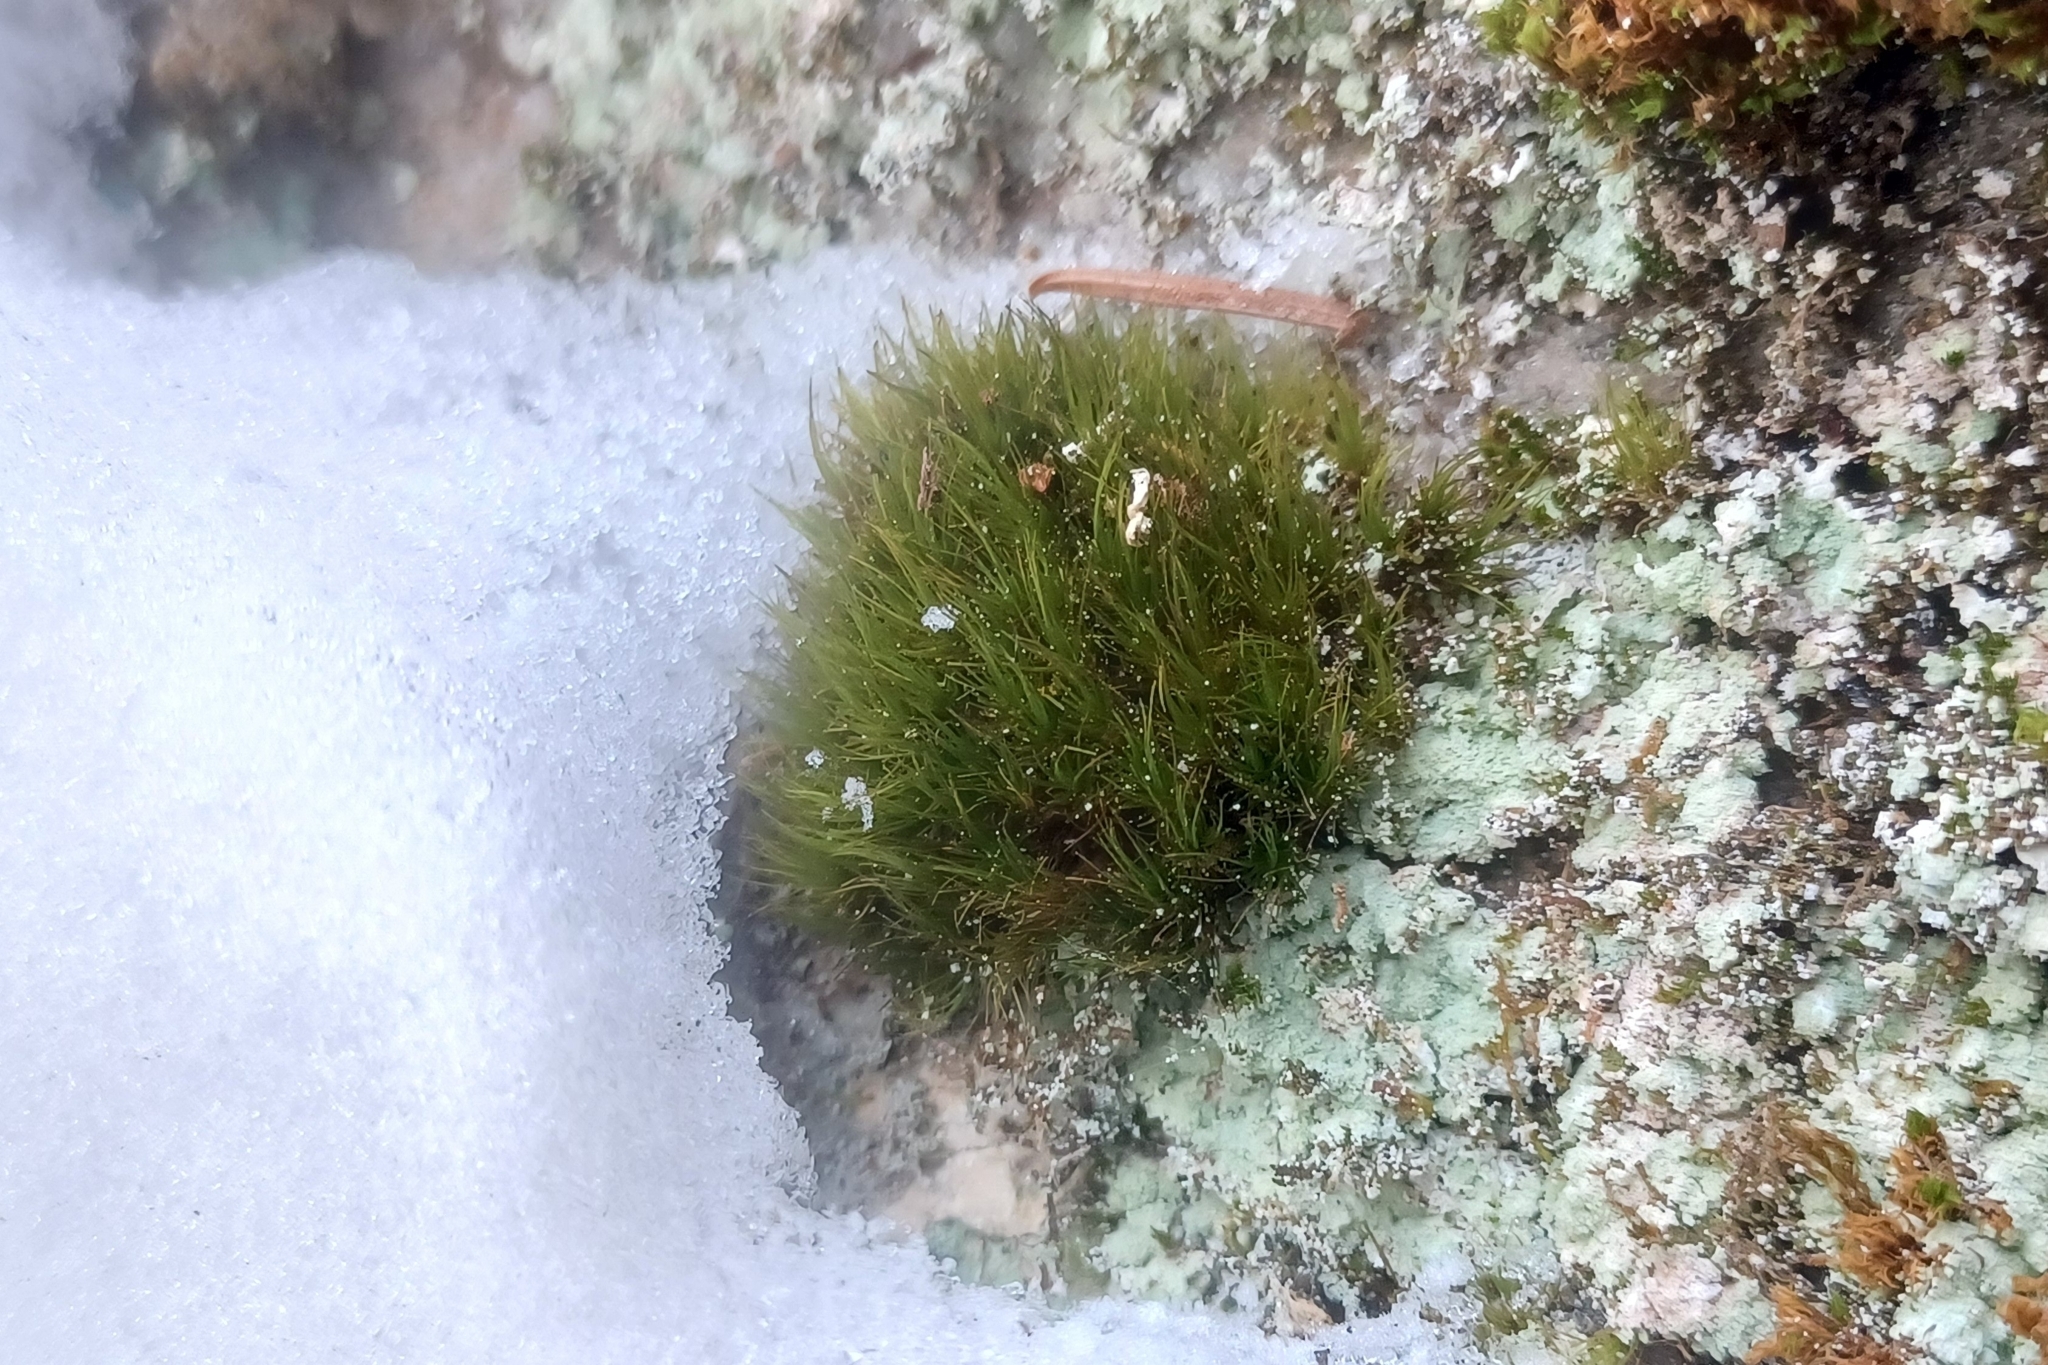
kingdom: Plantae
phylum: Bryophyta
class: Bryopsida
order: Dicranales
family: Dicranaceae
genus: Dicranum
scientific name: Dicranum viride
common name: Green broom moss
